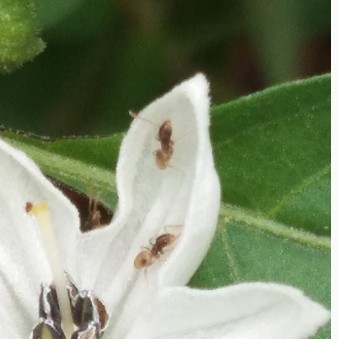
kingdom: Animalia
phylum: Arthropoda
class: Insecta
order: Hymenoptera
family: Formicidae
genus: Tapinoma
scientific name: Tapinoma melanocephalum
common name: Ghost ant
